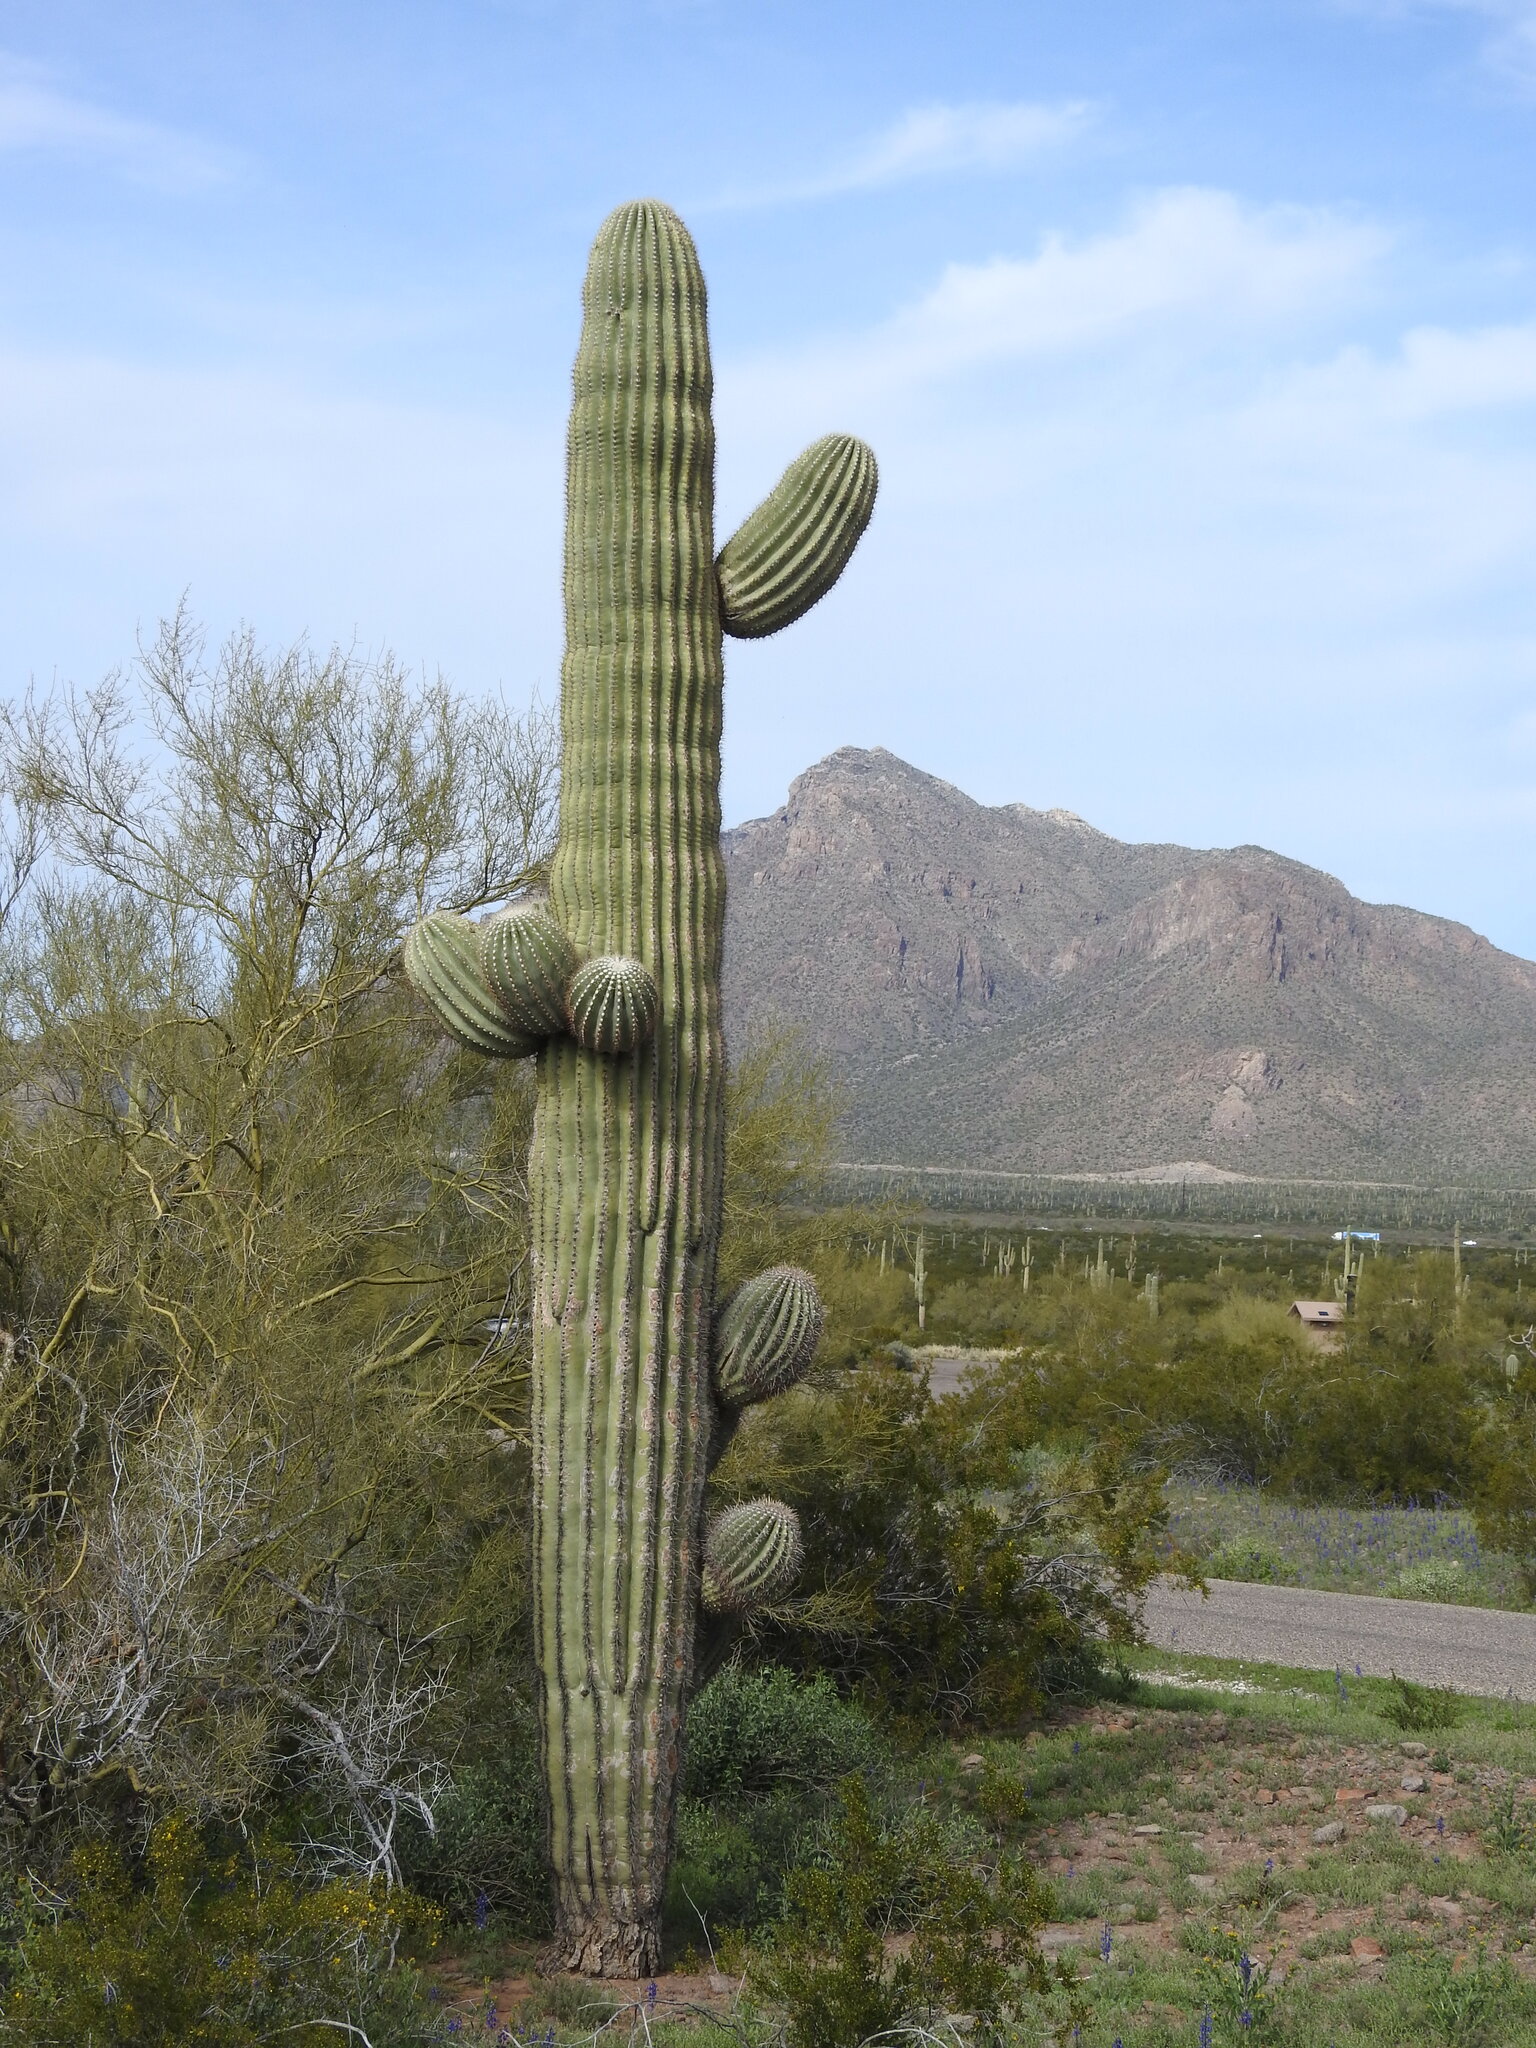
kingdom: Plantae
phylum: Tracheophyta
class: Magnoliopsida
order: Caryophyllales
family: Cactaceae
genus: Carnegiea
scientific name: Carnegiea gigantea
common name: Saguaro
